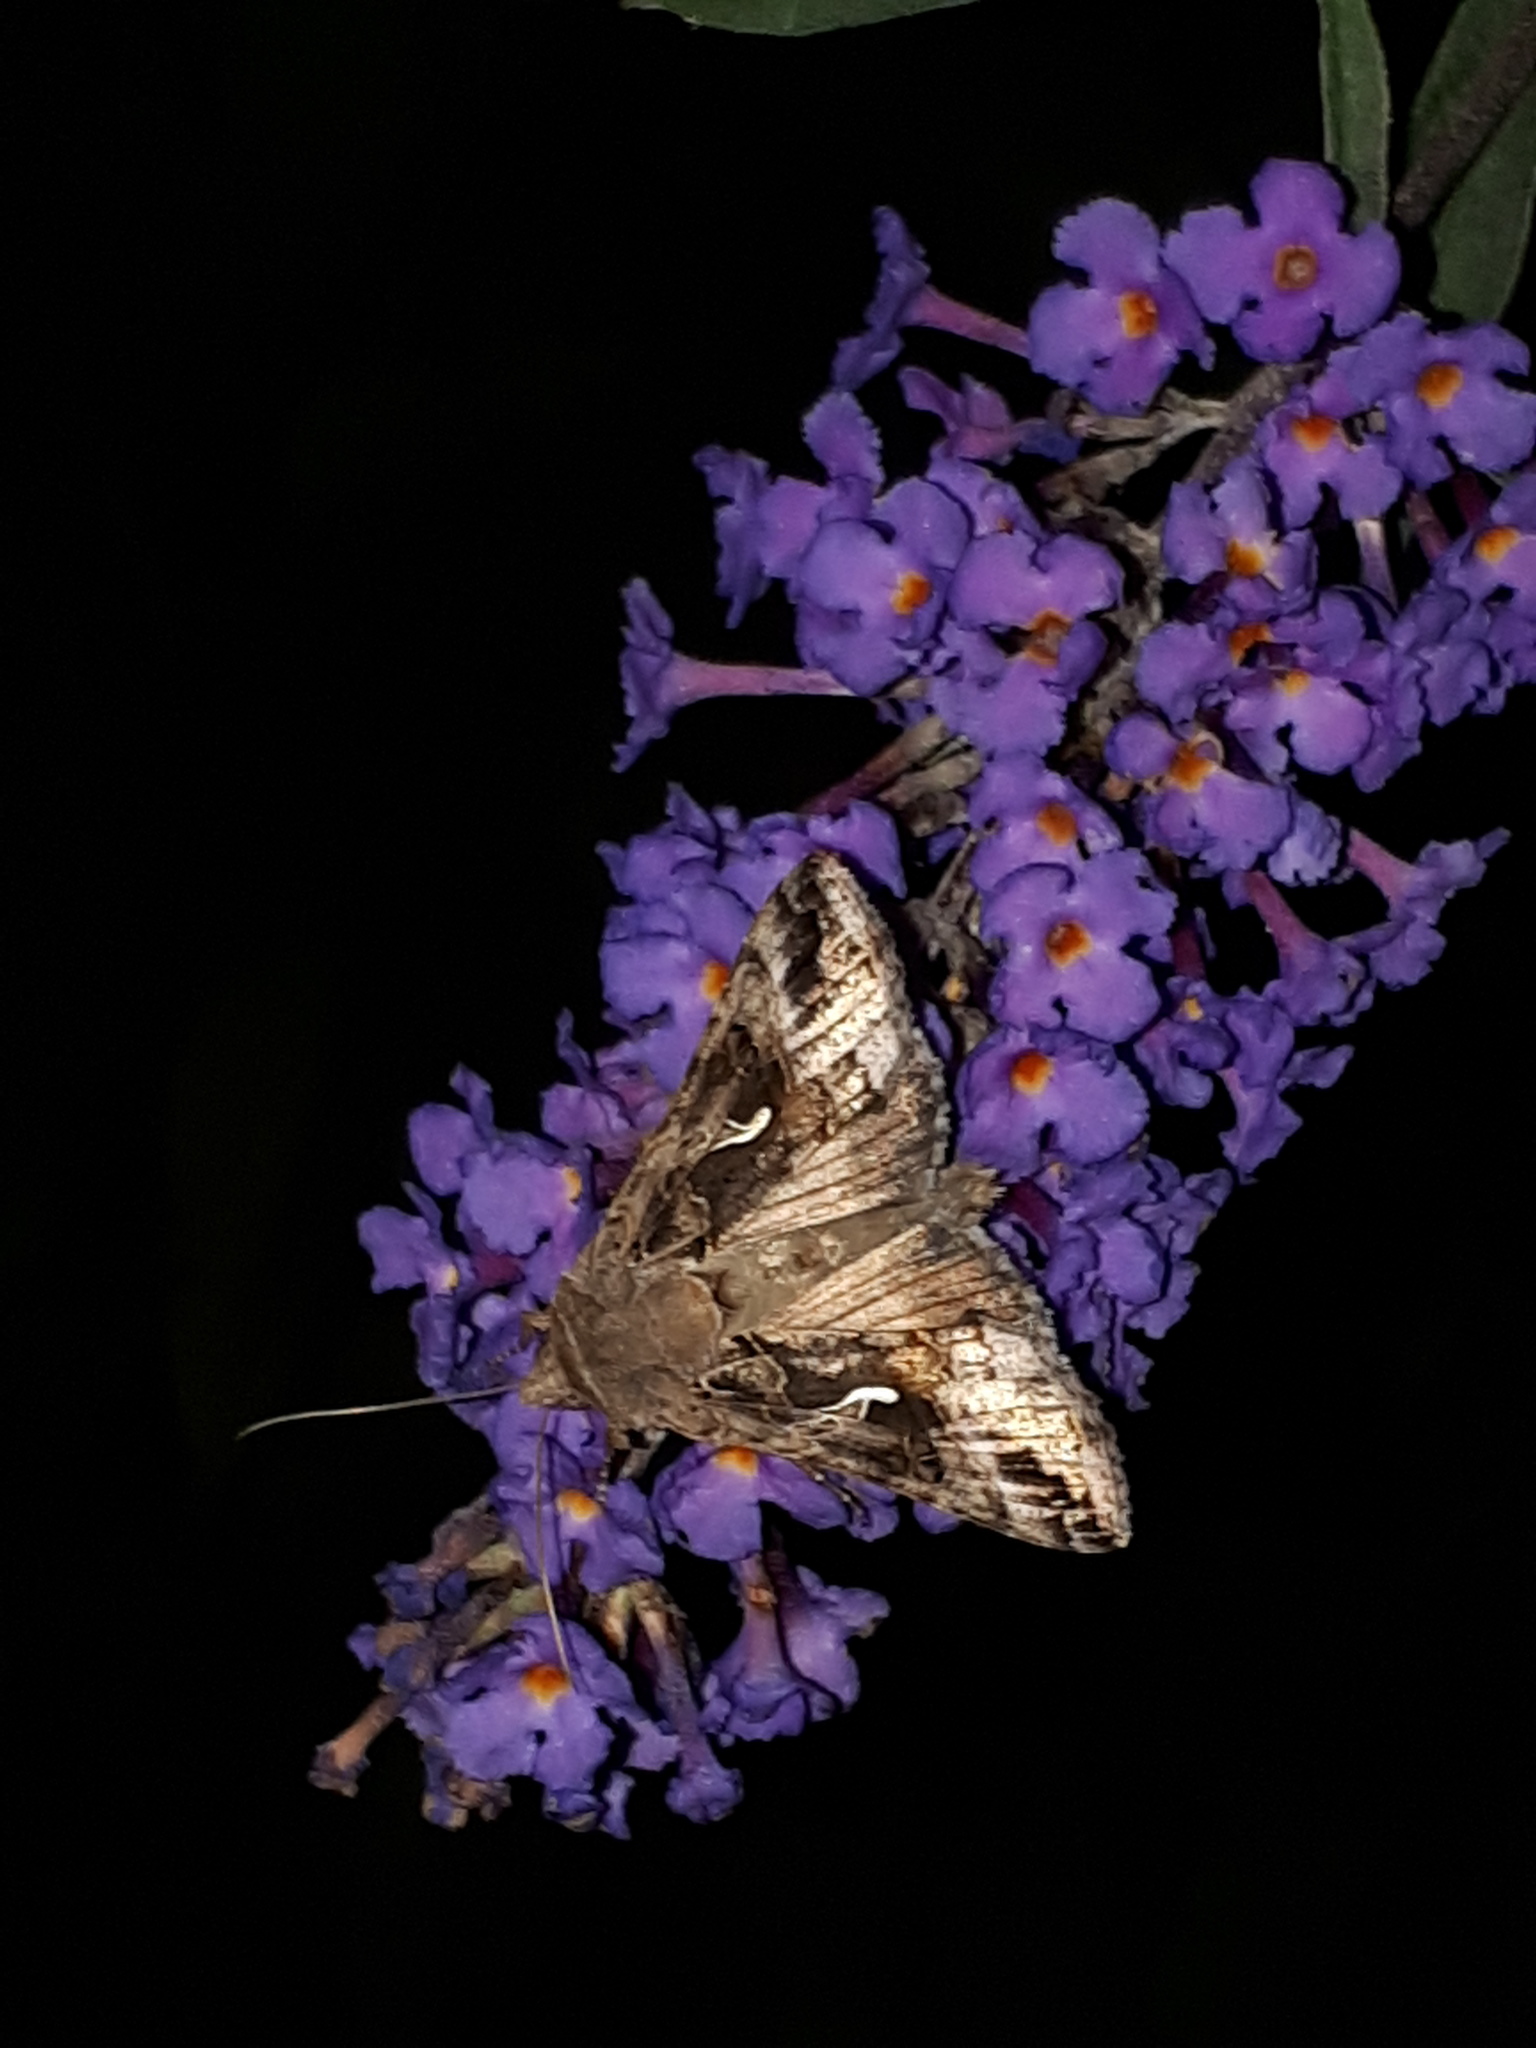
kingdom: Animalia
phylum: Arthropoda
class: Insecta
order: Lepidoptera
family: Noctuidae
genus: Autographa
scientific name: Autographa gamma
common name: Silver y
